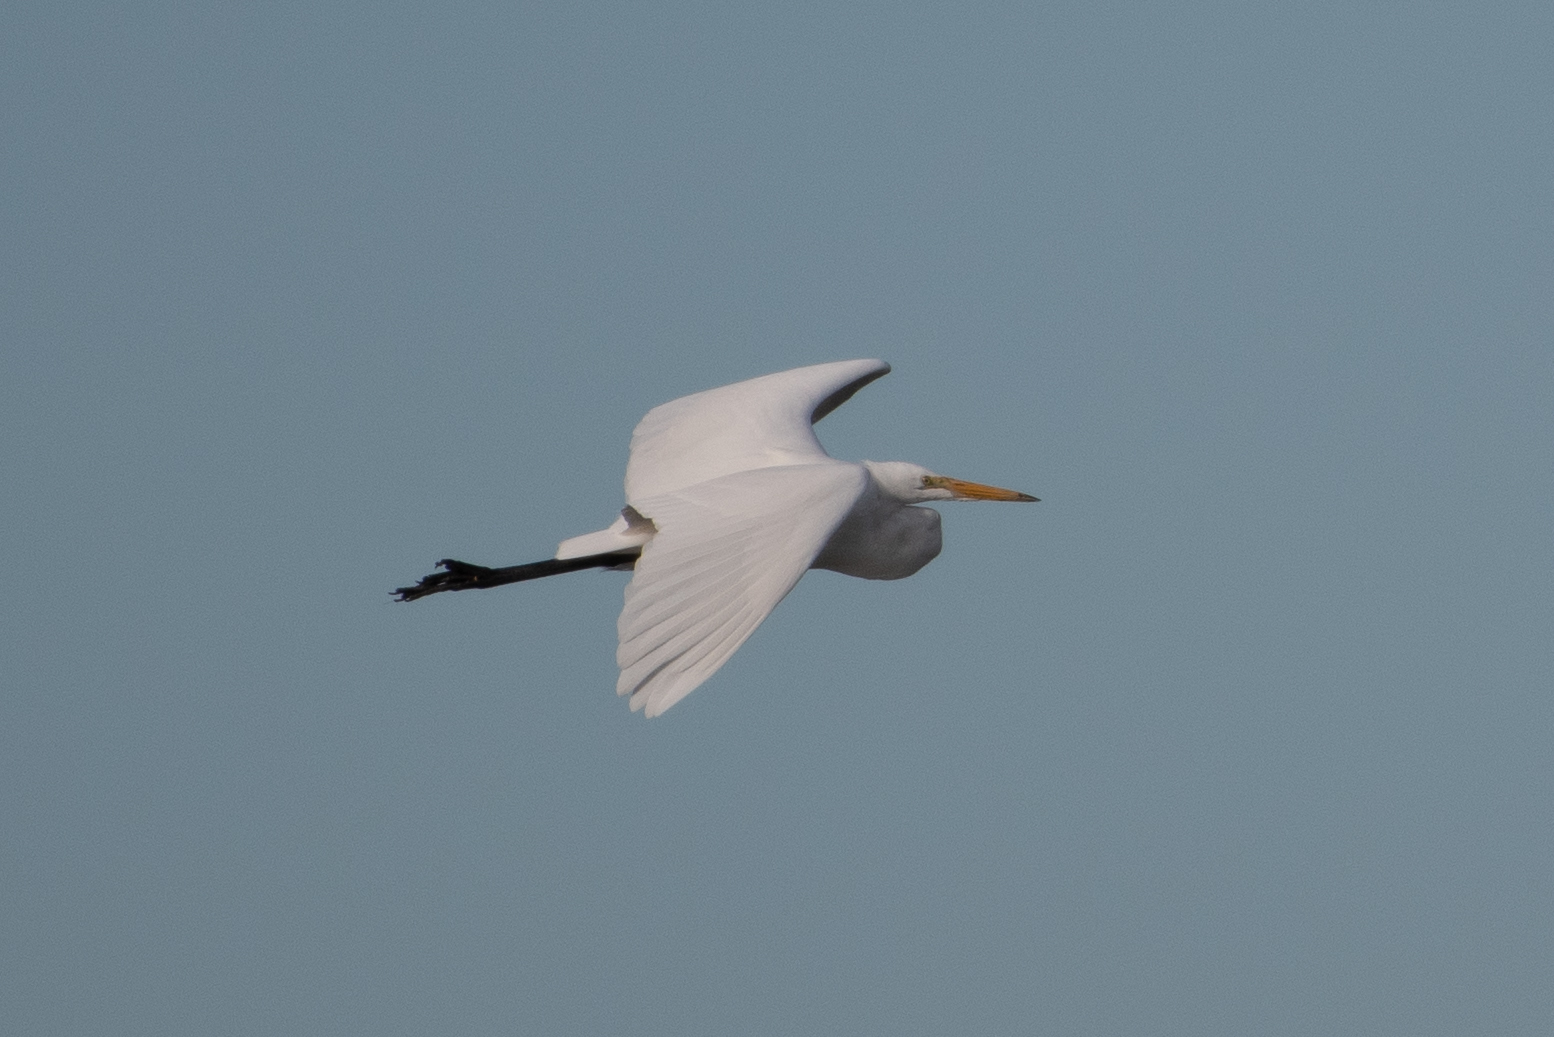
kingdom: Animalia
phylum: Chordata
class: Aves
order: Pelecaniformes
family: Ardeidae
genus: Ardea
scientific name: Ardea alba
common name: Great egret
